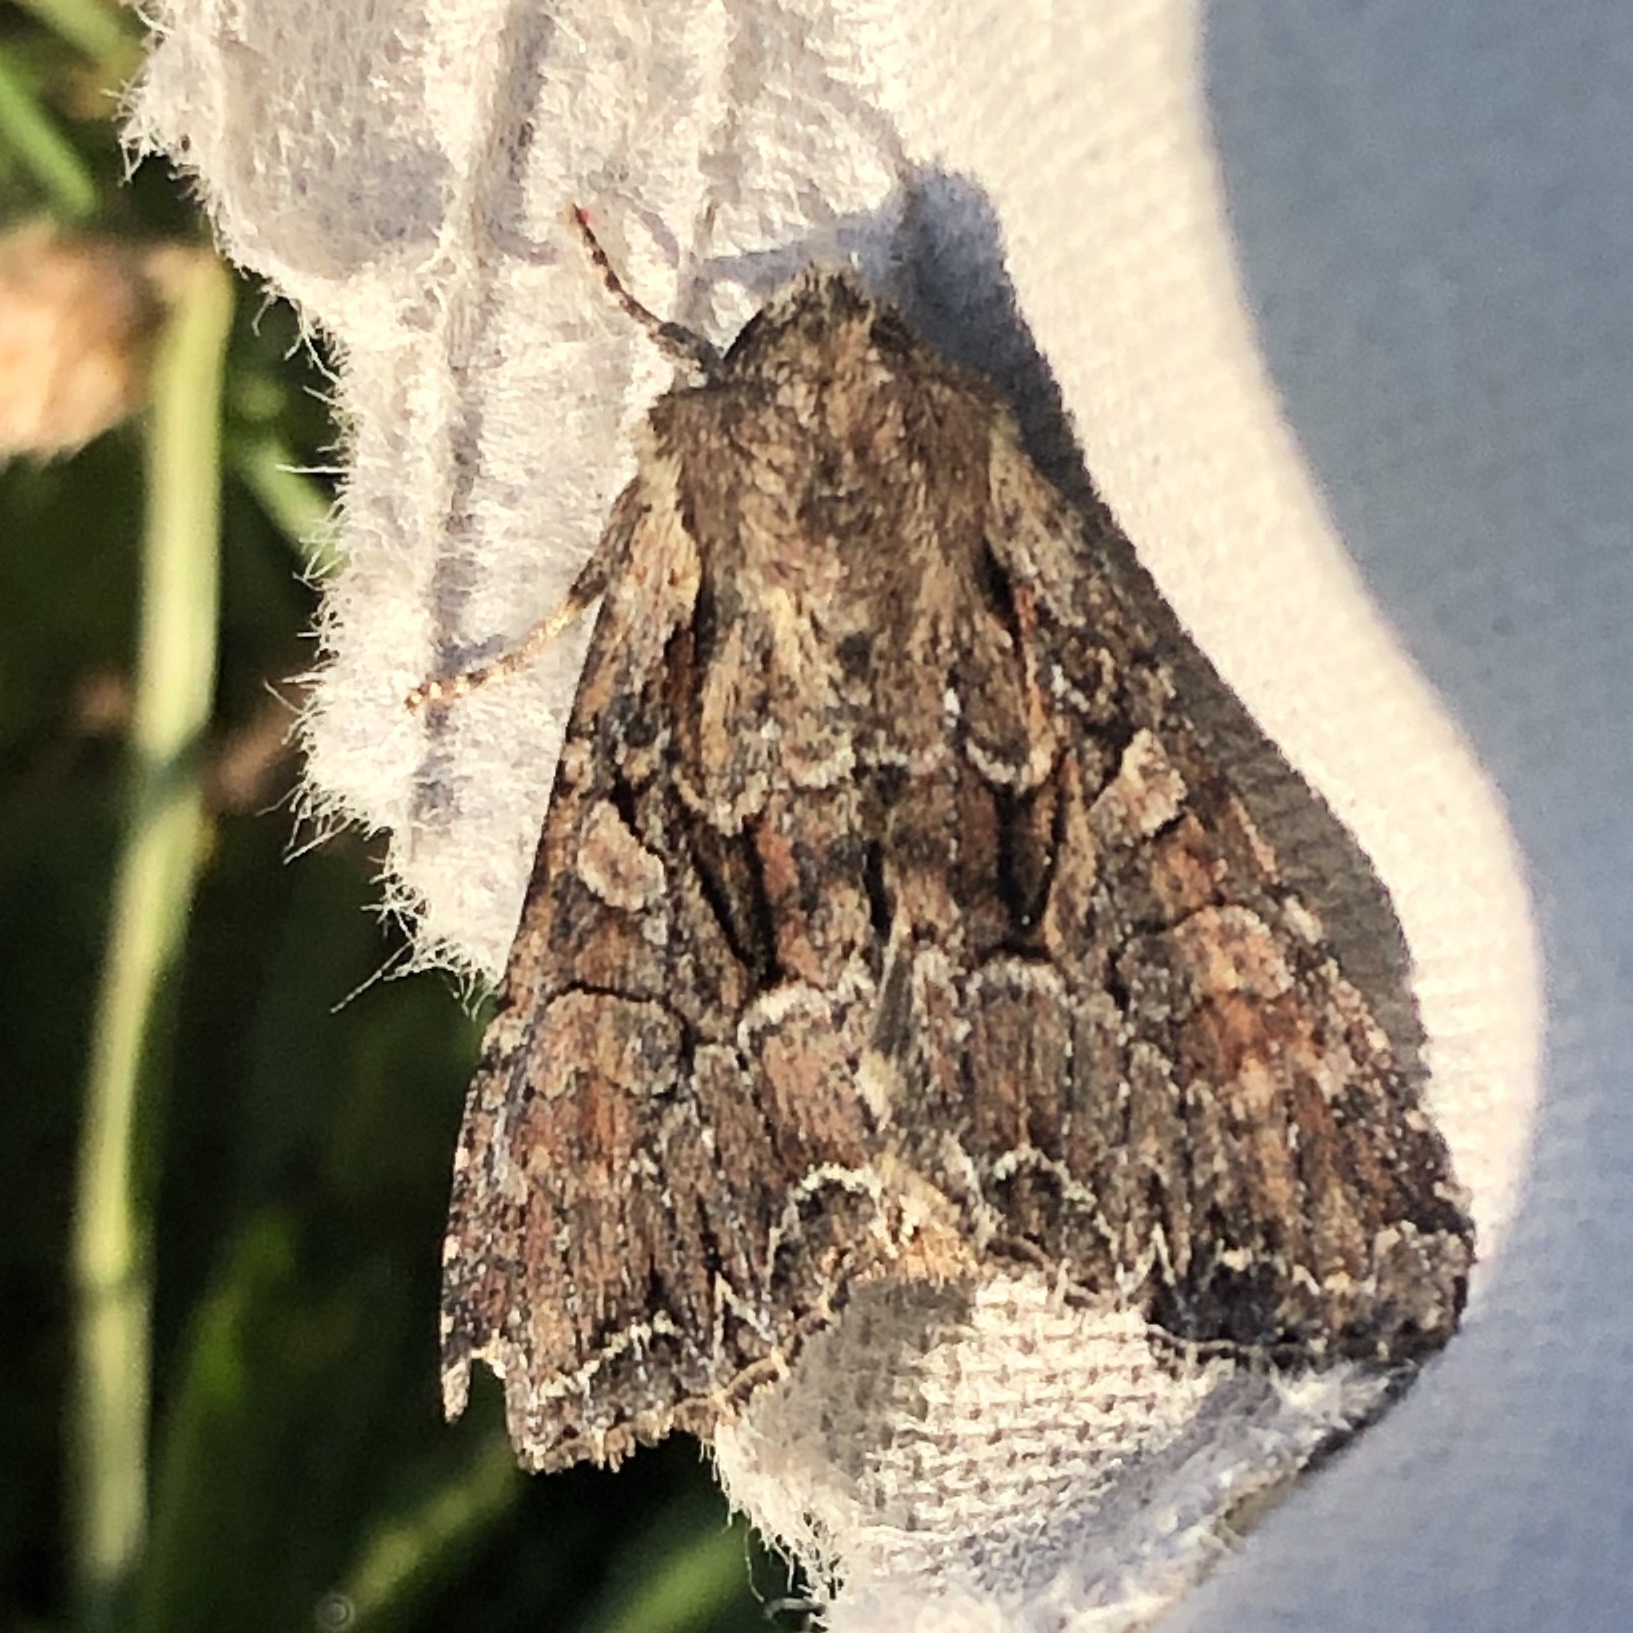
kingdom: Animalia
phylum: Arthropoda
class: Insecta
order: Lepidoptera
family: Noctuidae
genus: Lacanobia
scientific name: Lacanobia thalassina
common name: Pale-shouldered brocade
